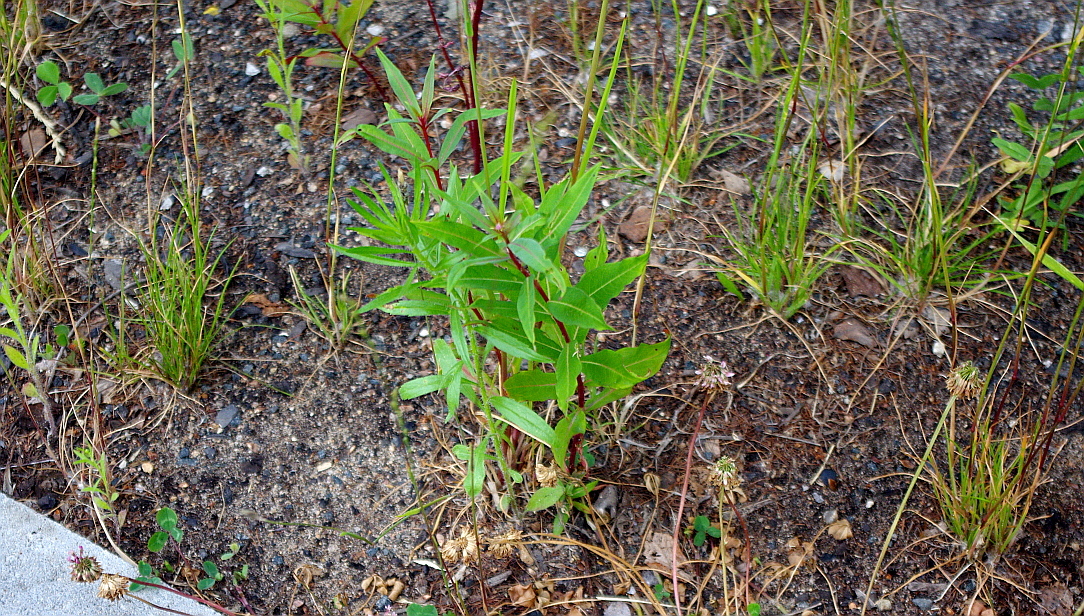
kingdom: Plantae
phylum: Tracheophyta
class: Magnoliopsida
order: Myrtales
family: Onagraceae
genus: Chamaenerion
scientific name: Chamaenerion angustifolium
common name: Fireweed
